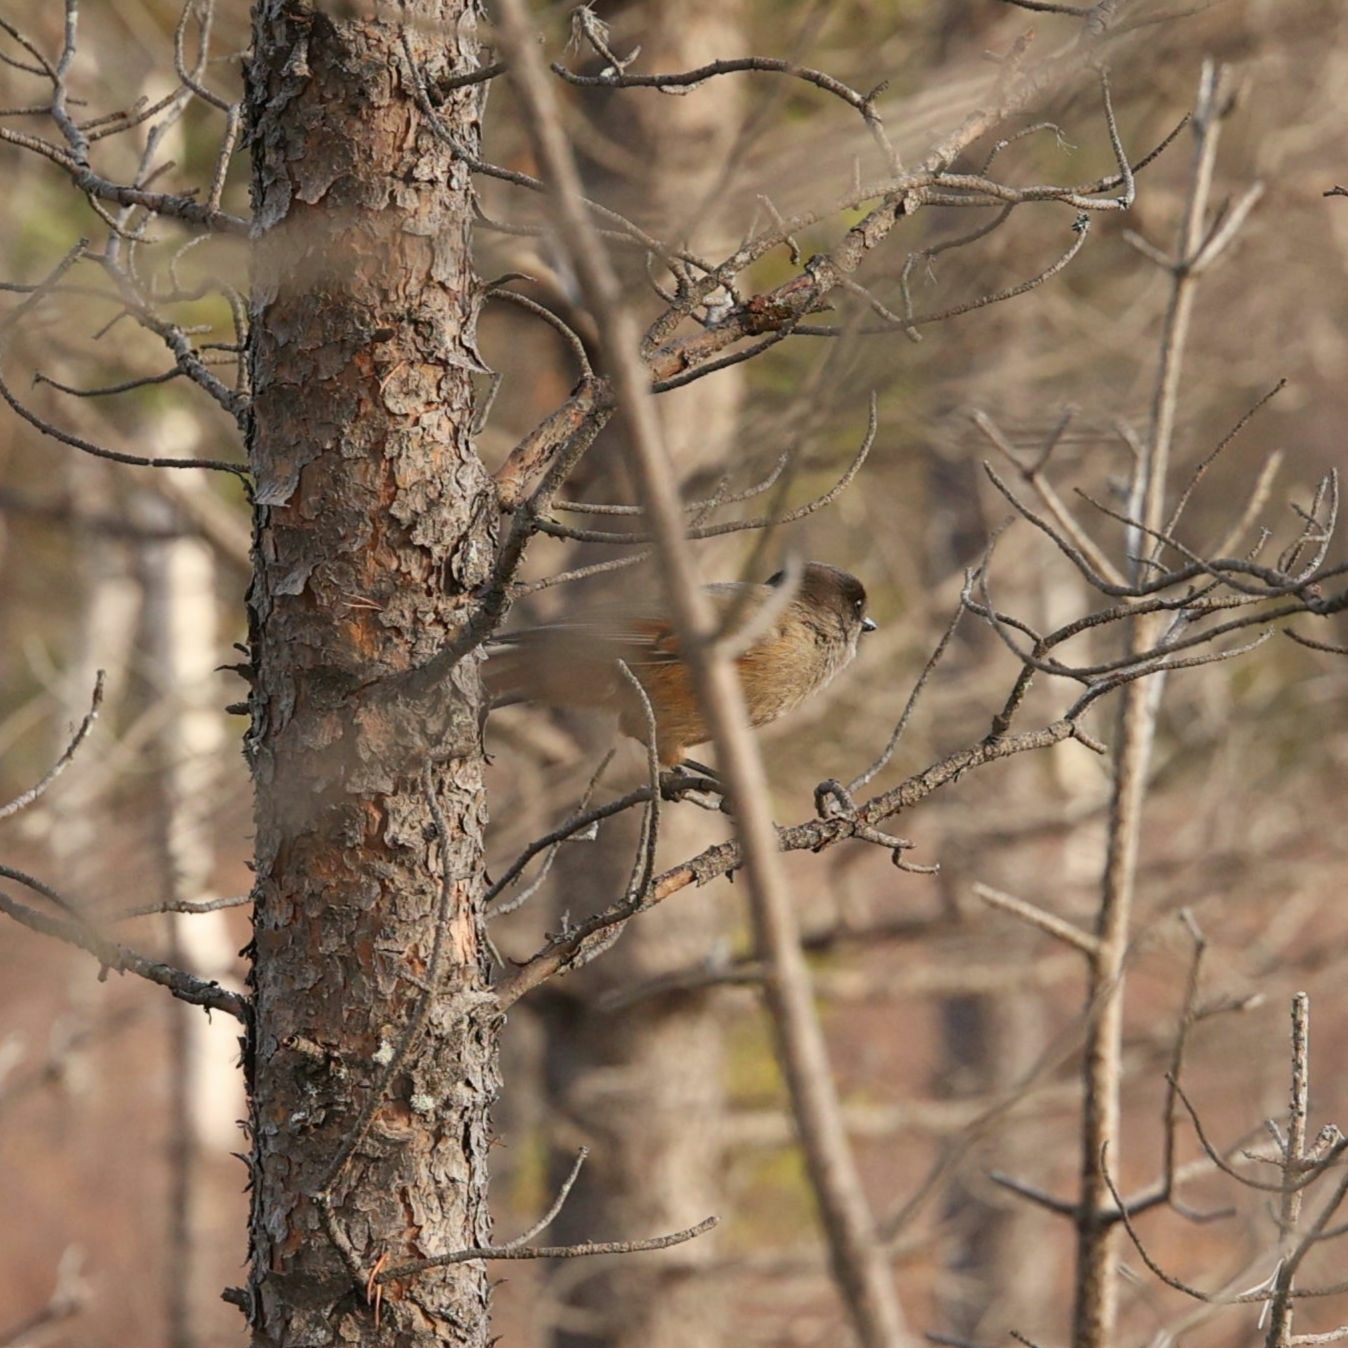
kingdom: Animalia
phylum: Chordata
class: Aves
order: Passeriformes
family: Corvidae
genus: Perisoreus
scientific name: Perisoreus infaustus
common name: Siberian jay
